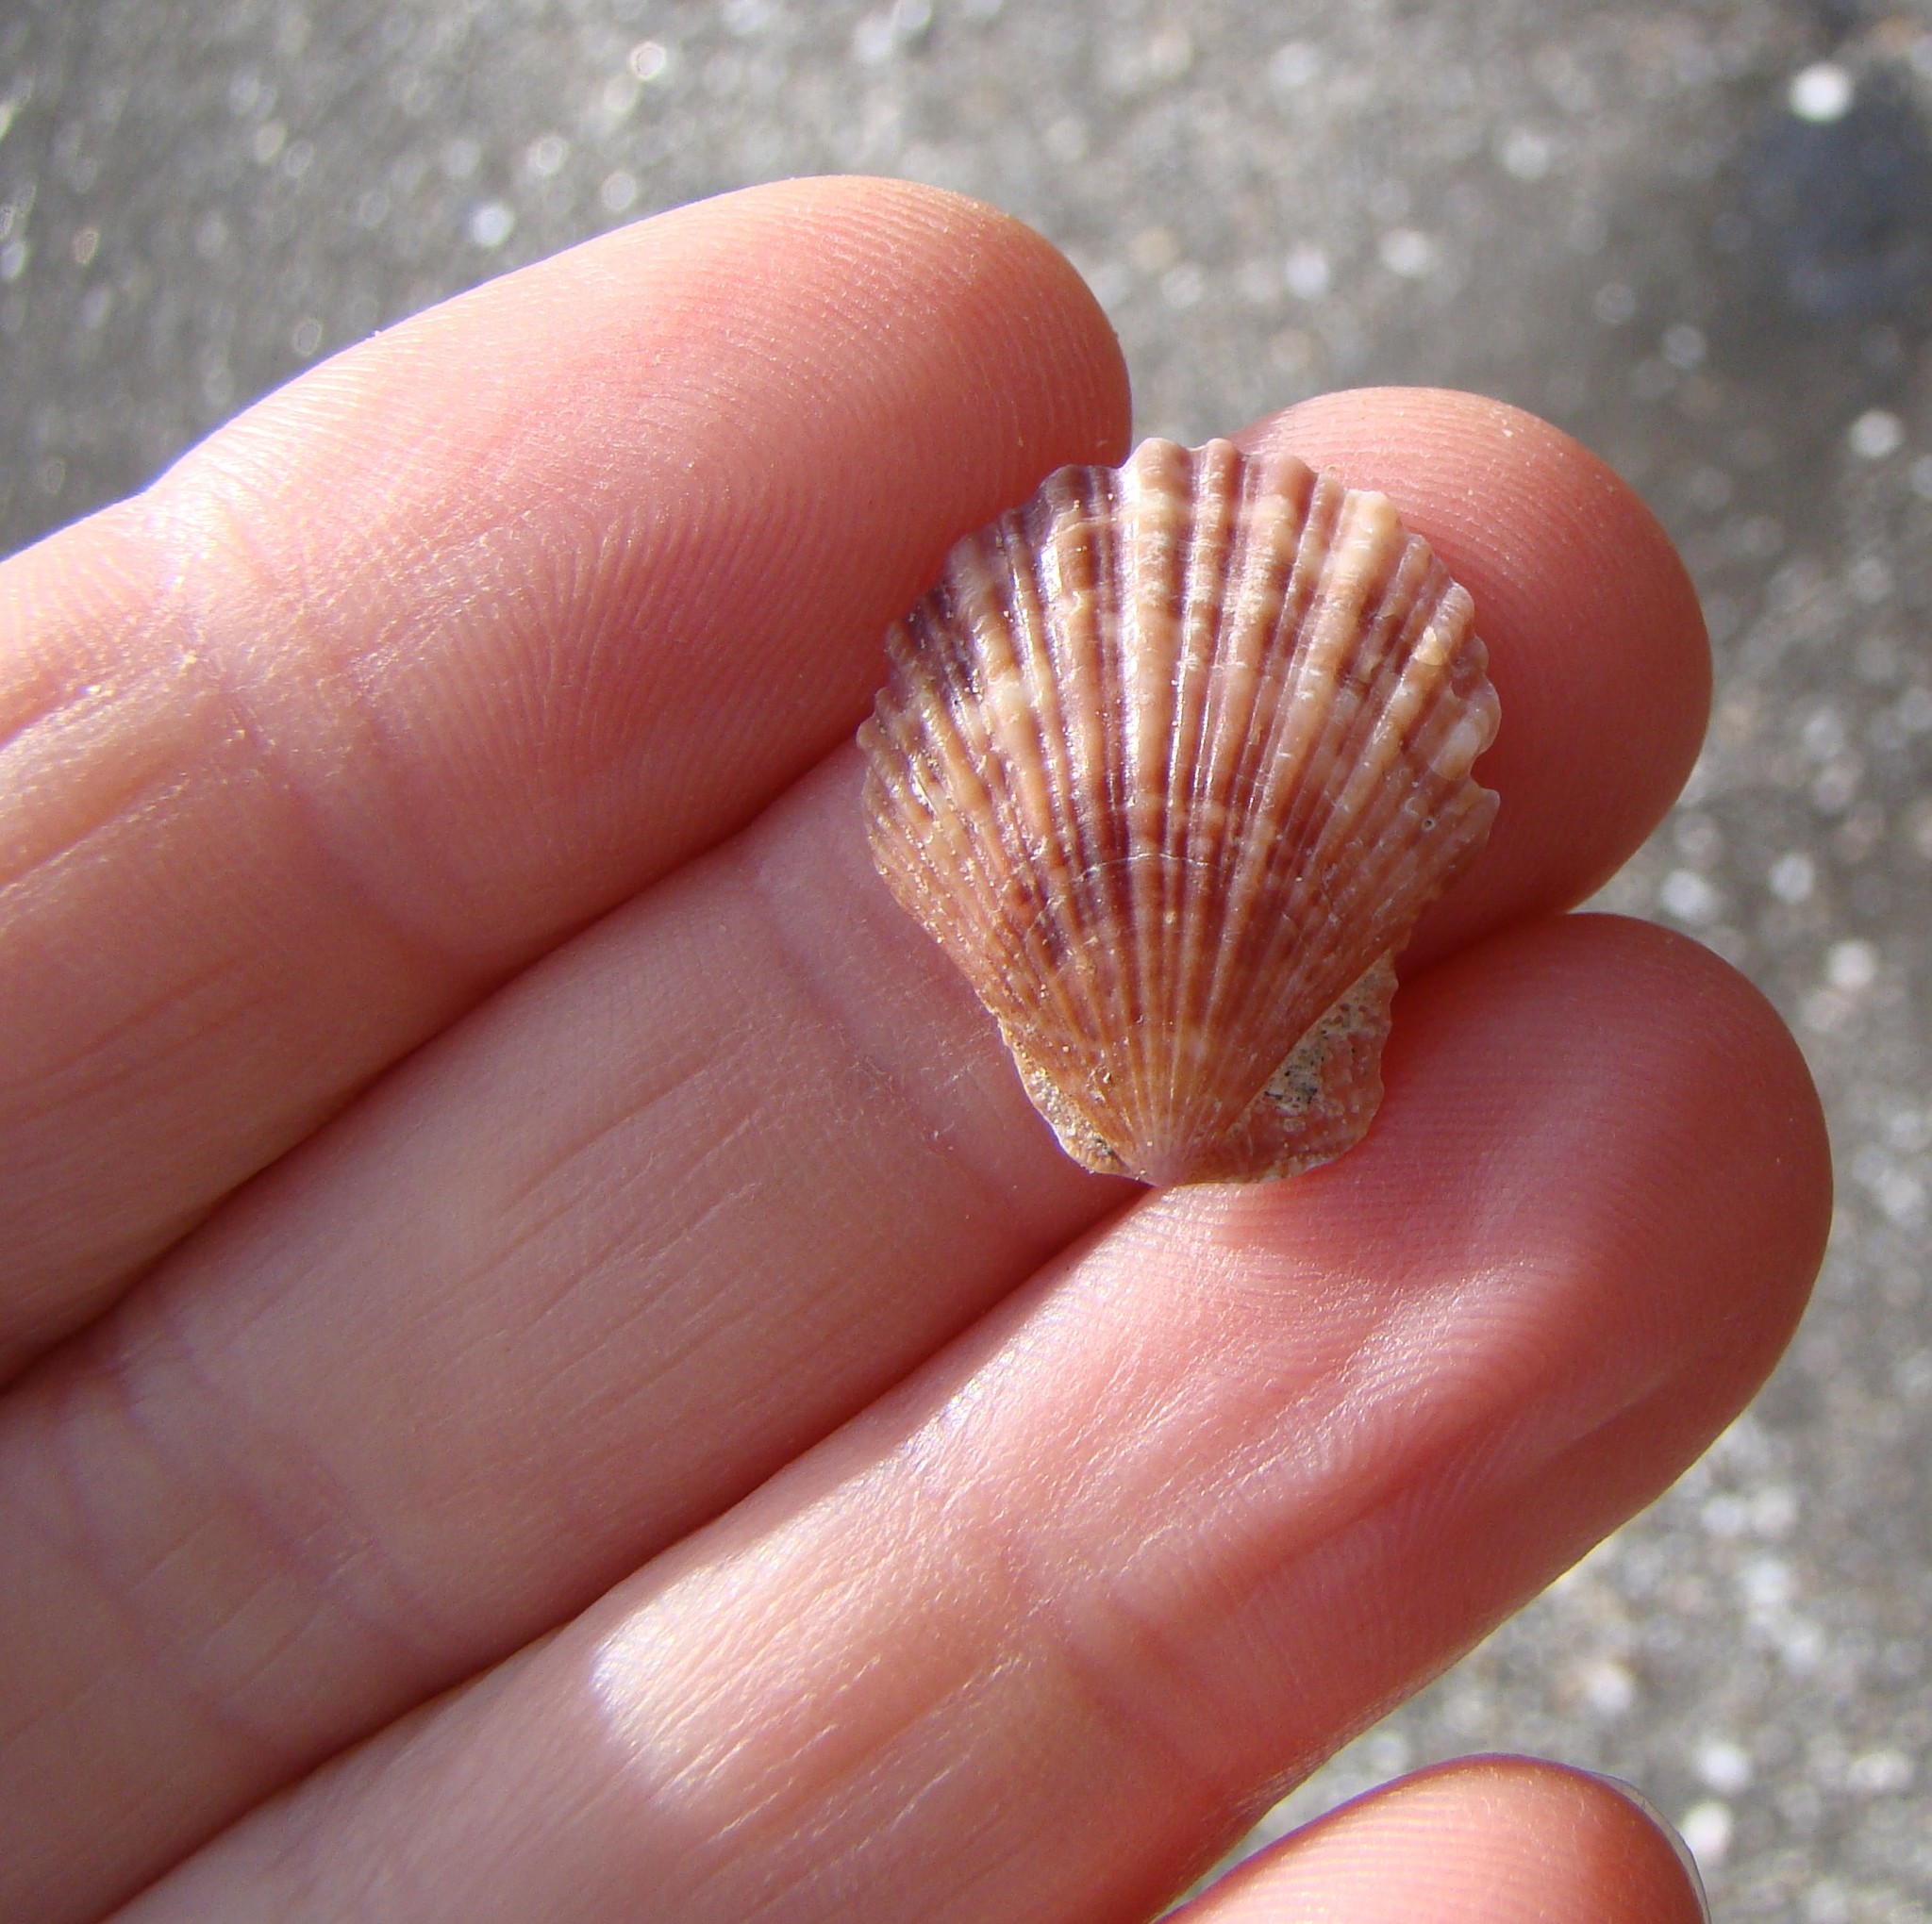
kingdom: Animalia
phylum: Mollusca
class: Bivalvia
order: Pectinida
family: Pectinidae
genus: Talochlamys
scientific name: Talochlamys zelandiae
